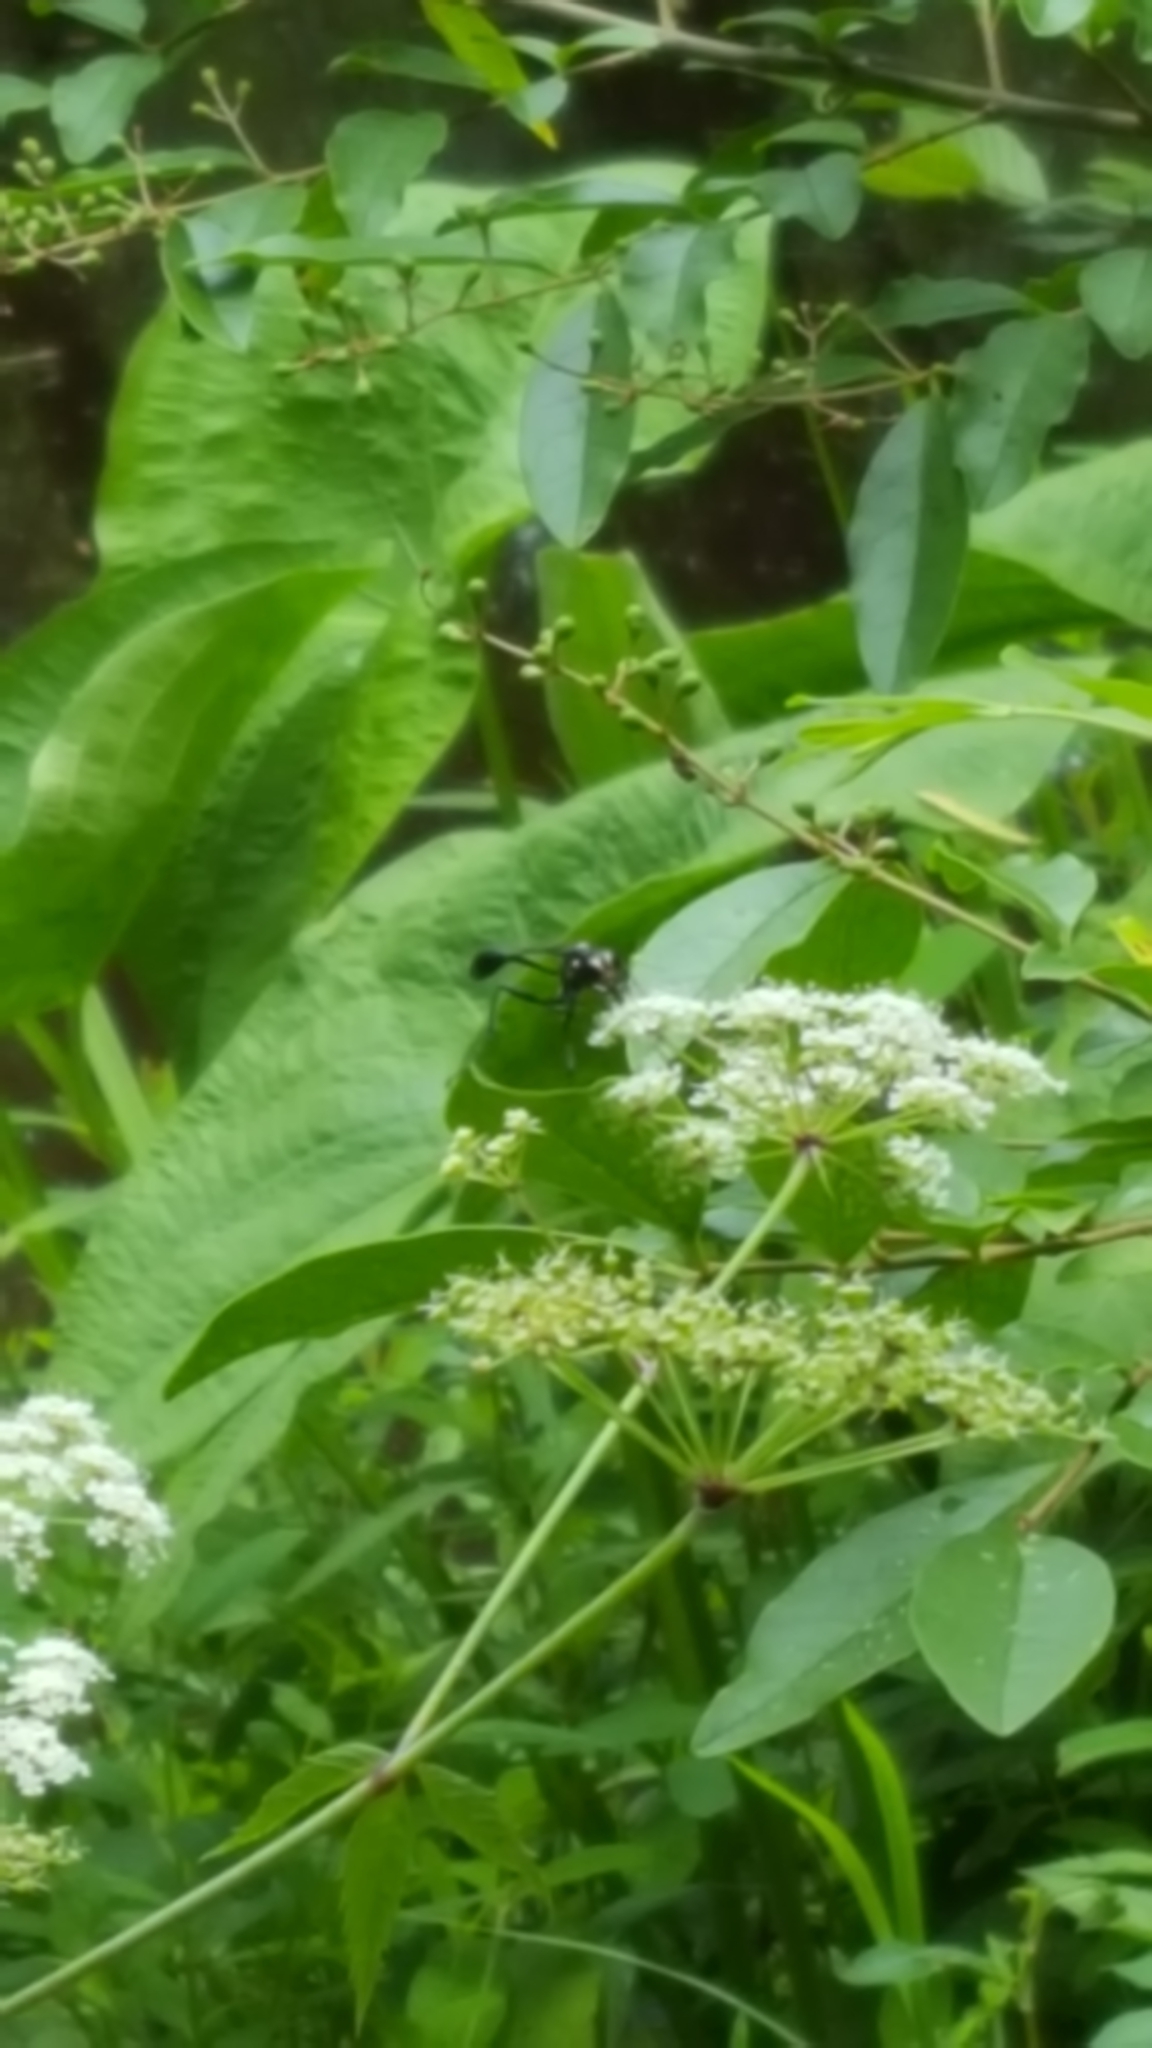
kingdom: Animalia
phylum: Arthropoda
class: Insecta
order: Hymenoptera
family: Sphecidae
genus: Eremnophila
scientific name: Eremnophila aureonotata
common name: Gold-marked thread-waisted wasp
